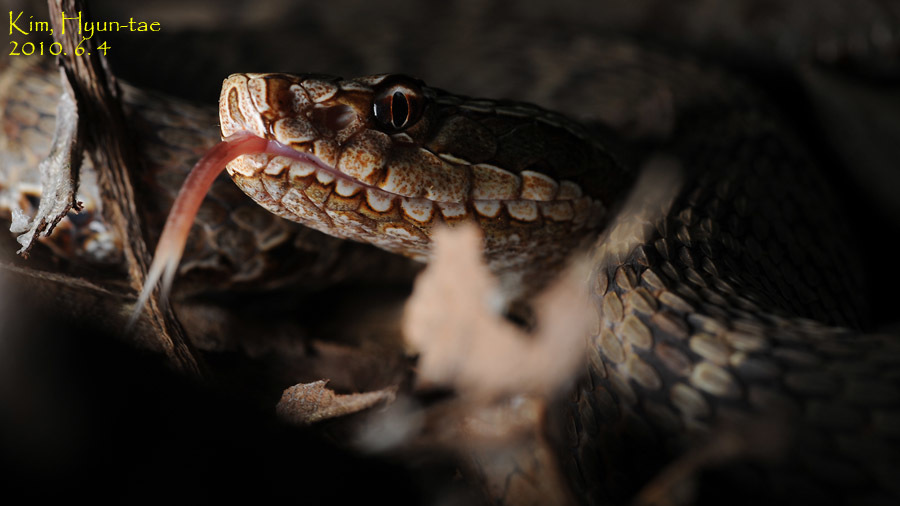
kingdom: Animalia
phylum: Chordata
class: Squamata
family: Viperidae
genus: Gloydius
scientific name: Gloydius ussuriensis
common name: Ussuri mamushi
